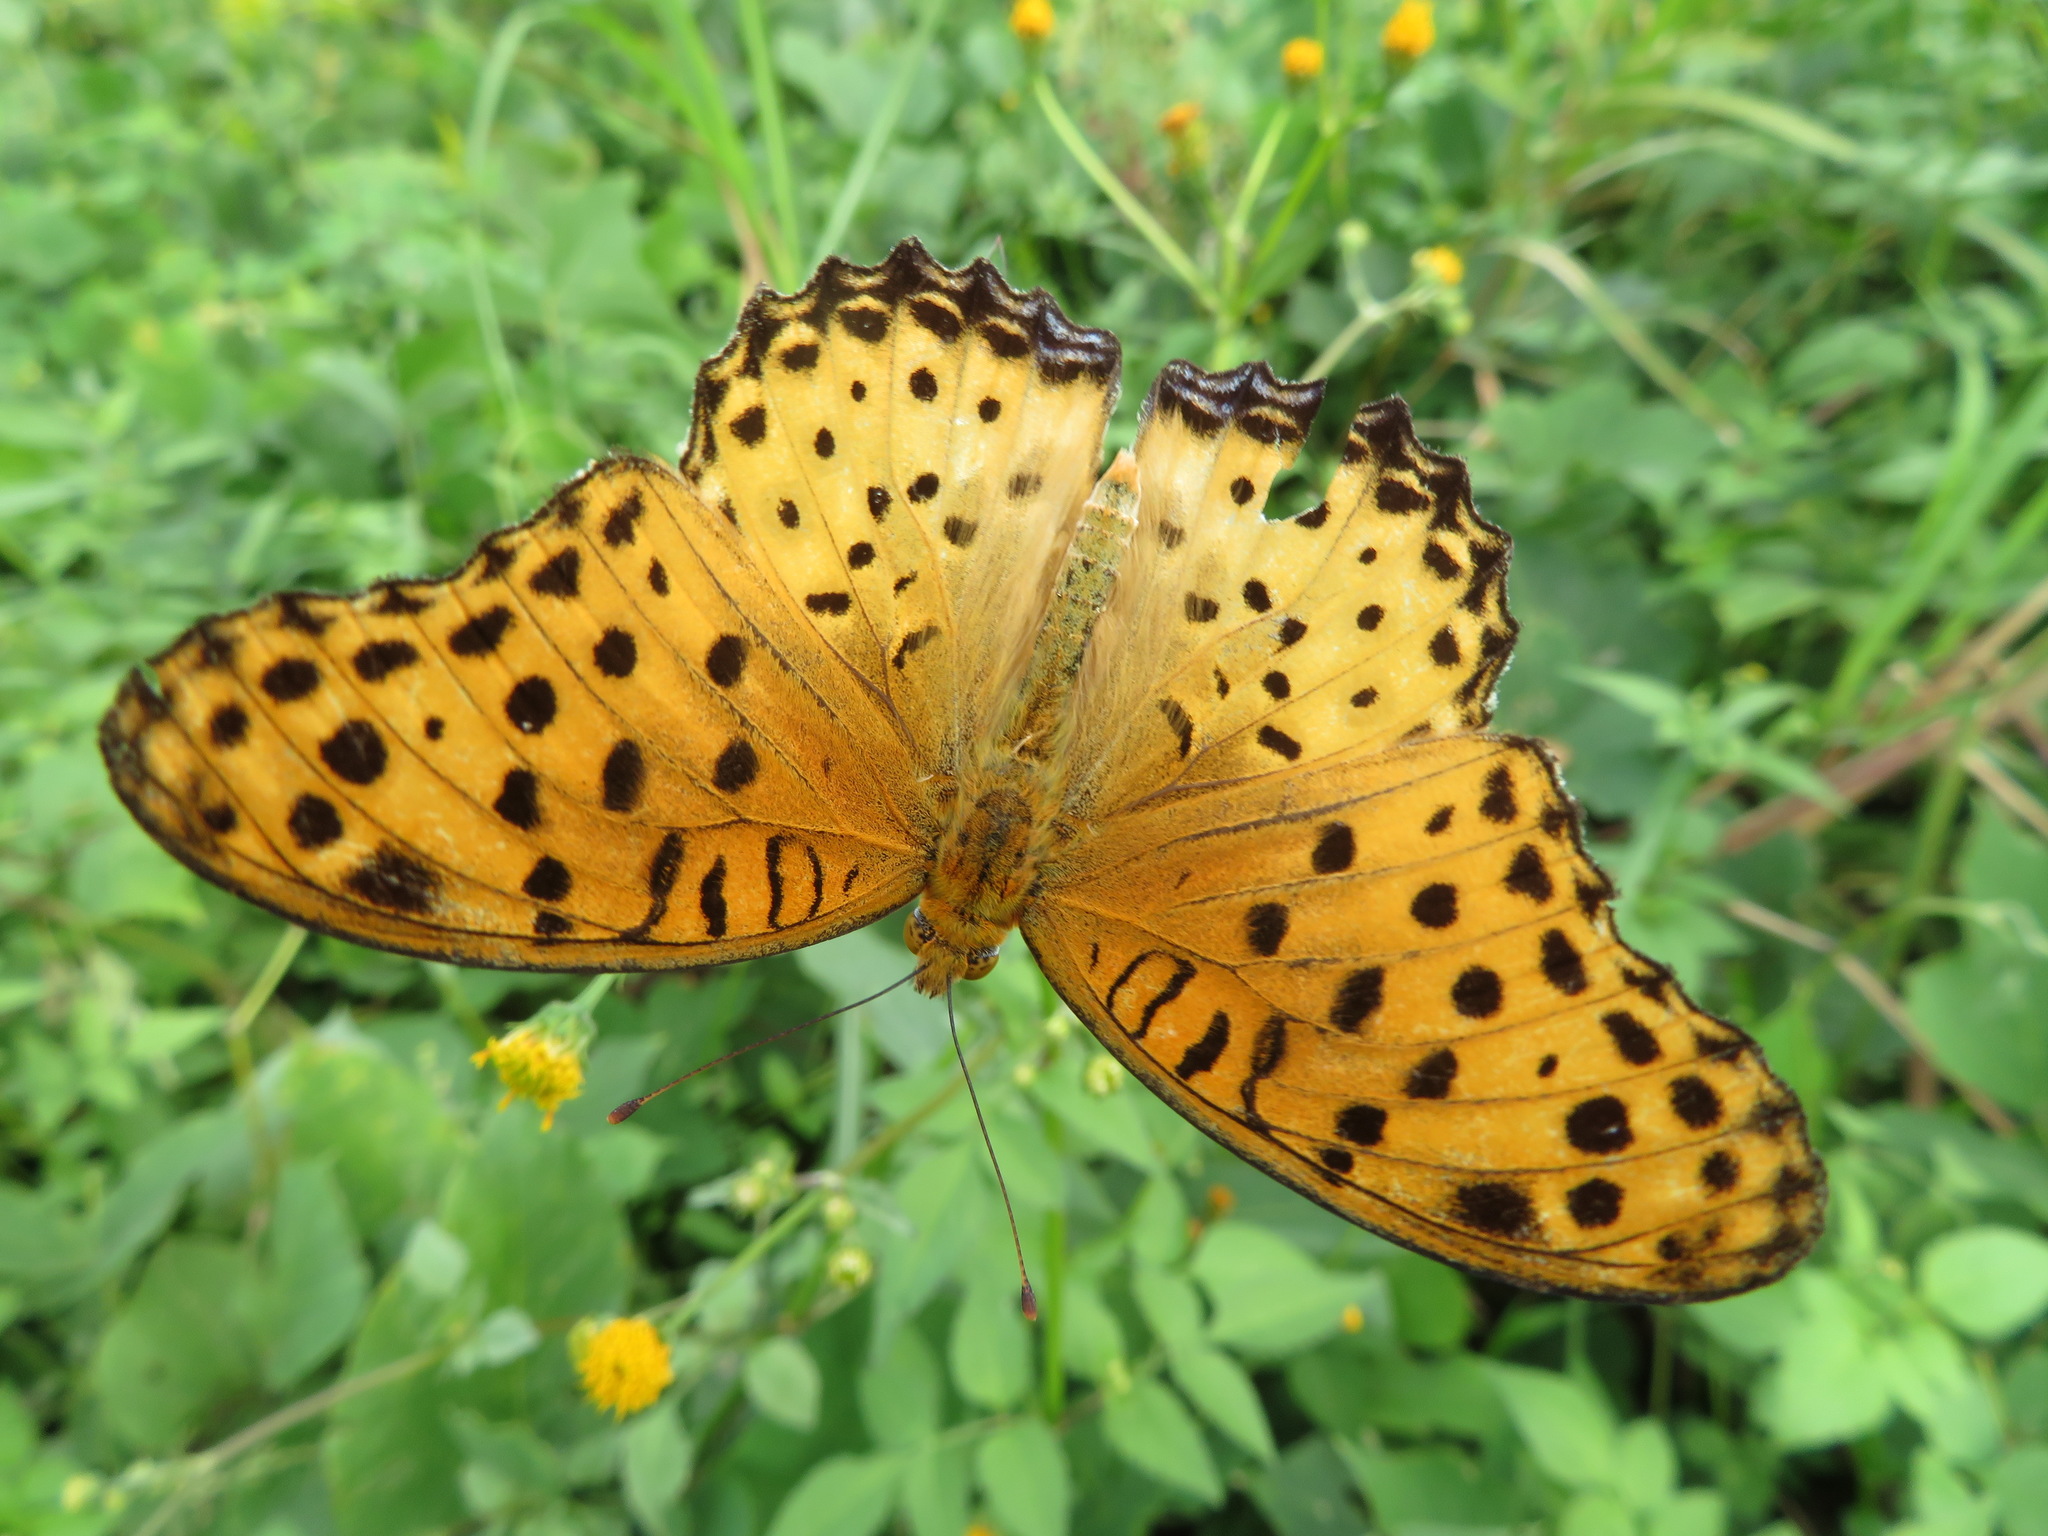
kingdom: Animalia
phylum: Arthropoda
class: Insecta
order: Lepidoptera
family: Nymphalidae
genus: Argynnis
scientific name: Argynnis hyperbius
